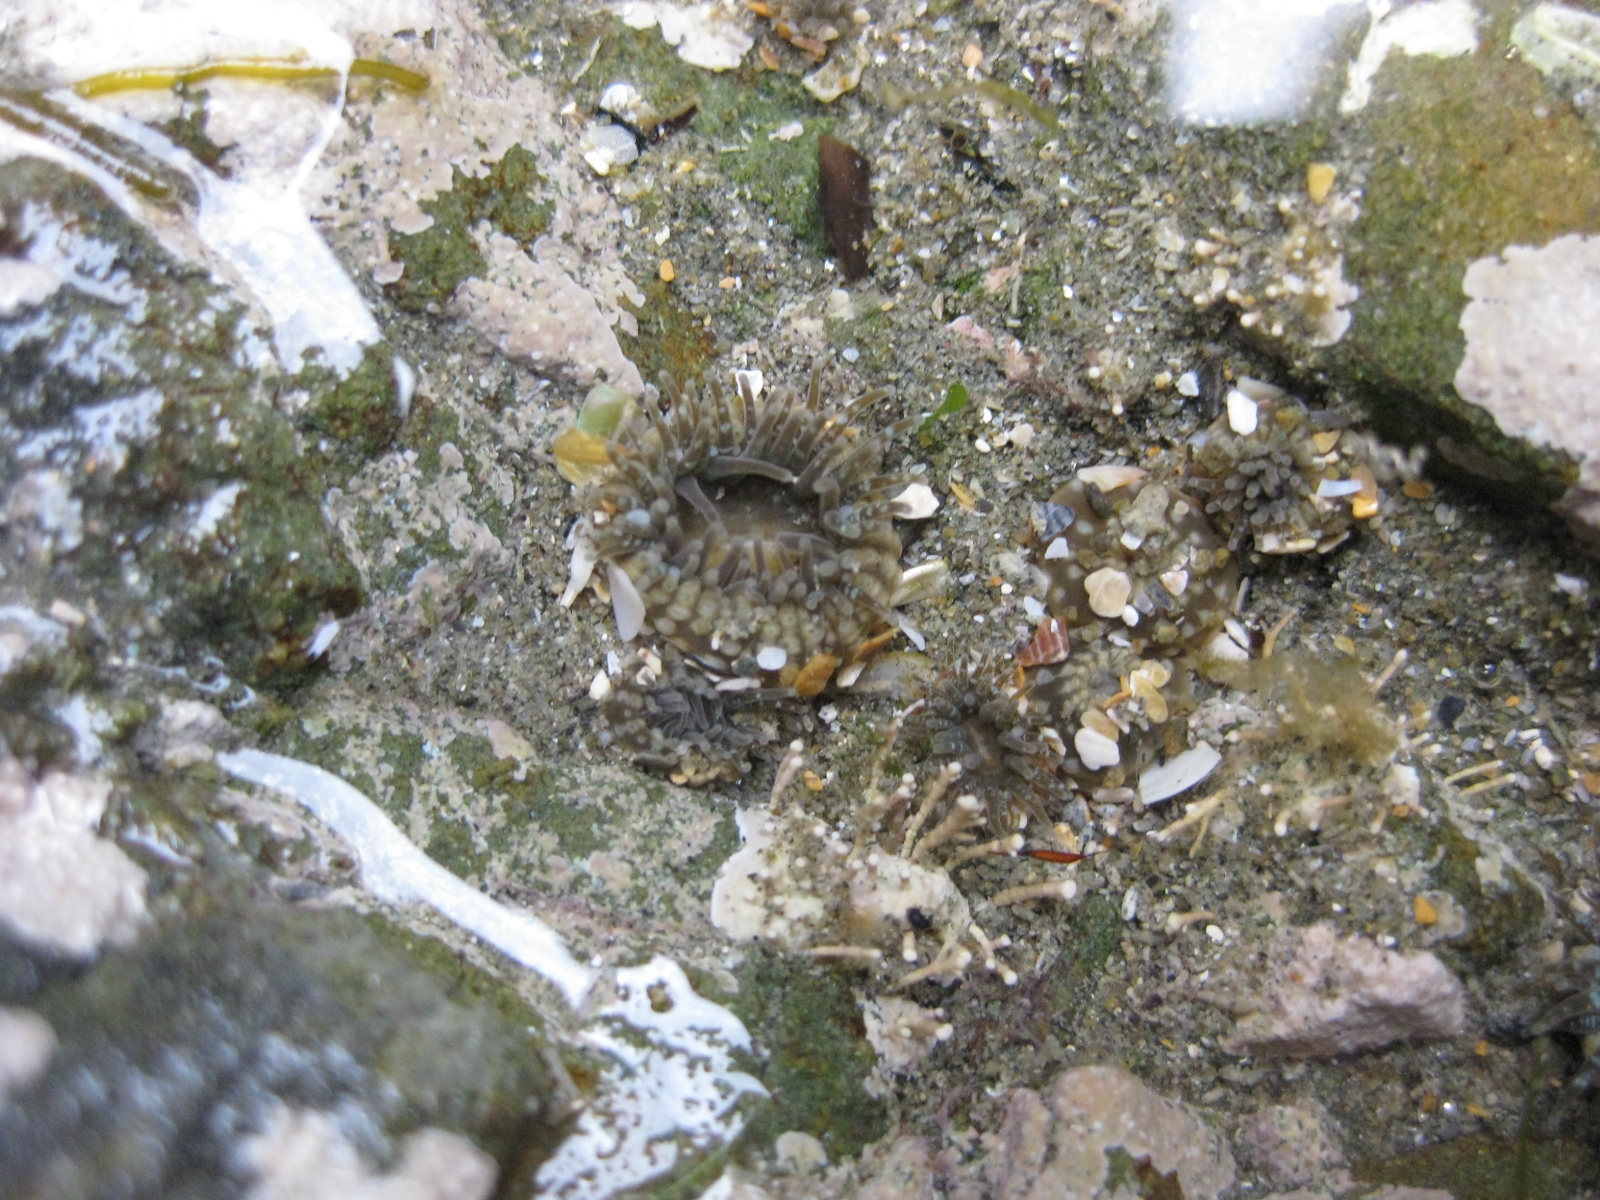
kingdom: Animalia
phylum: Cnidaria
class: Anthozoa
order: Actiniaria
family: Actiniidae
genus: Anthopleura
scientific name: Anthopleura hermaphroditica
